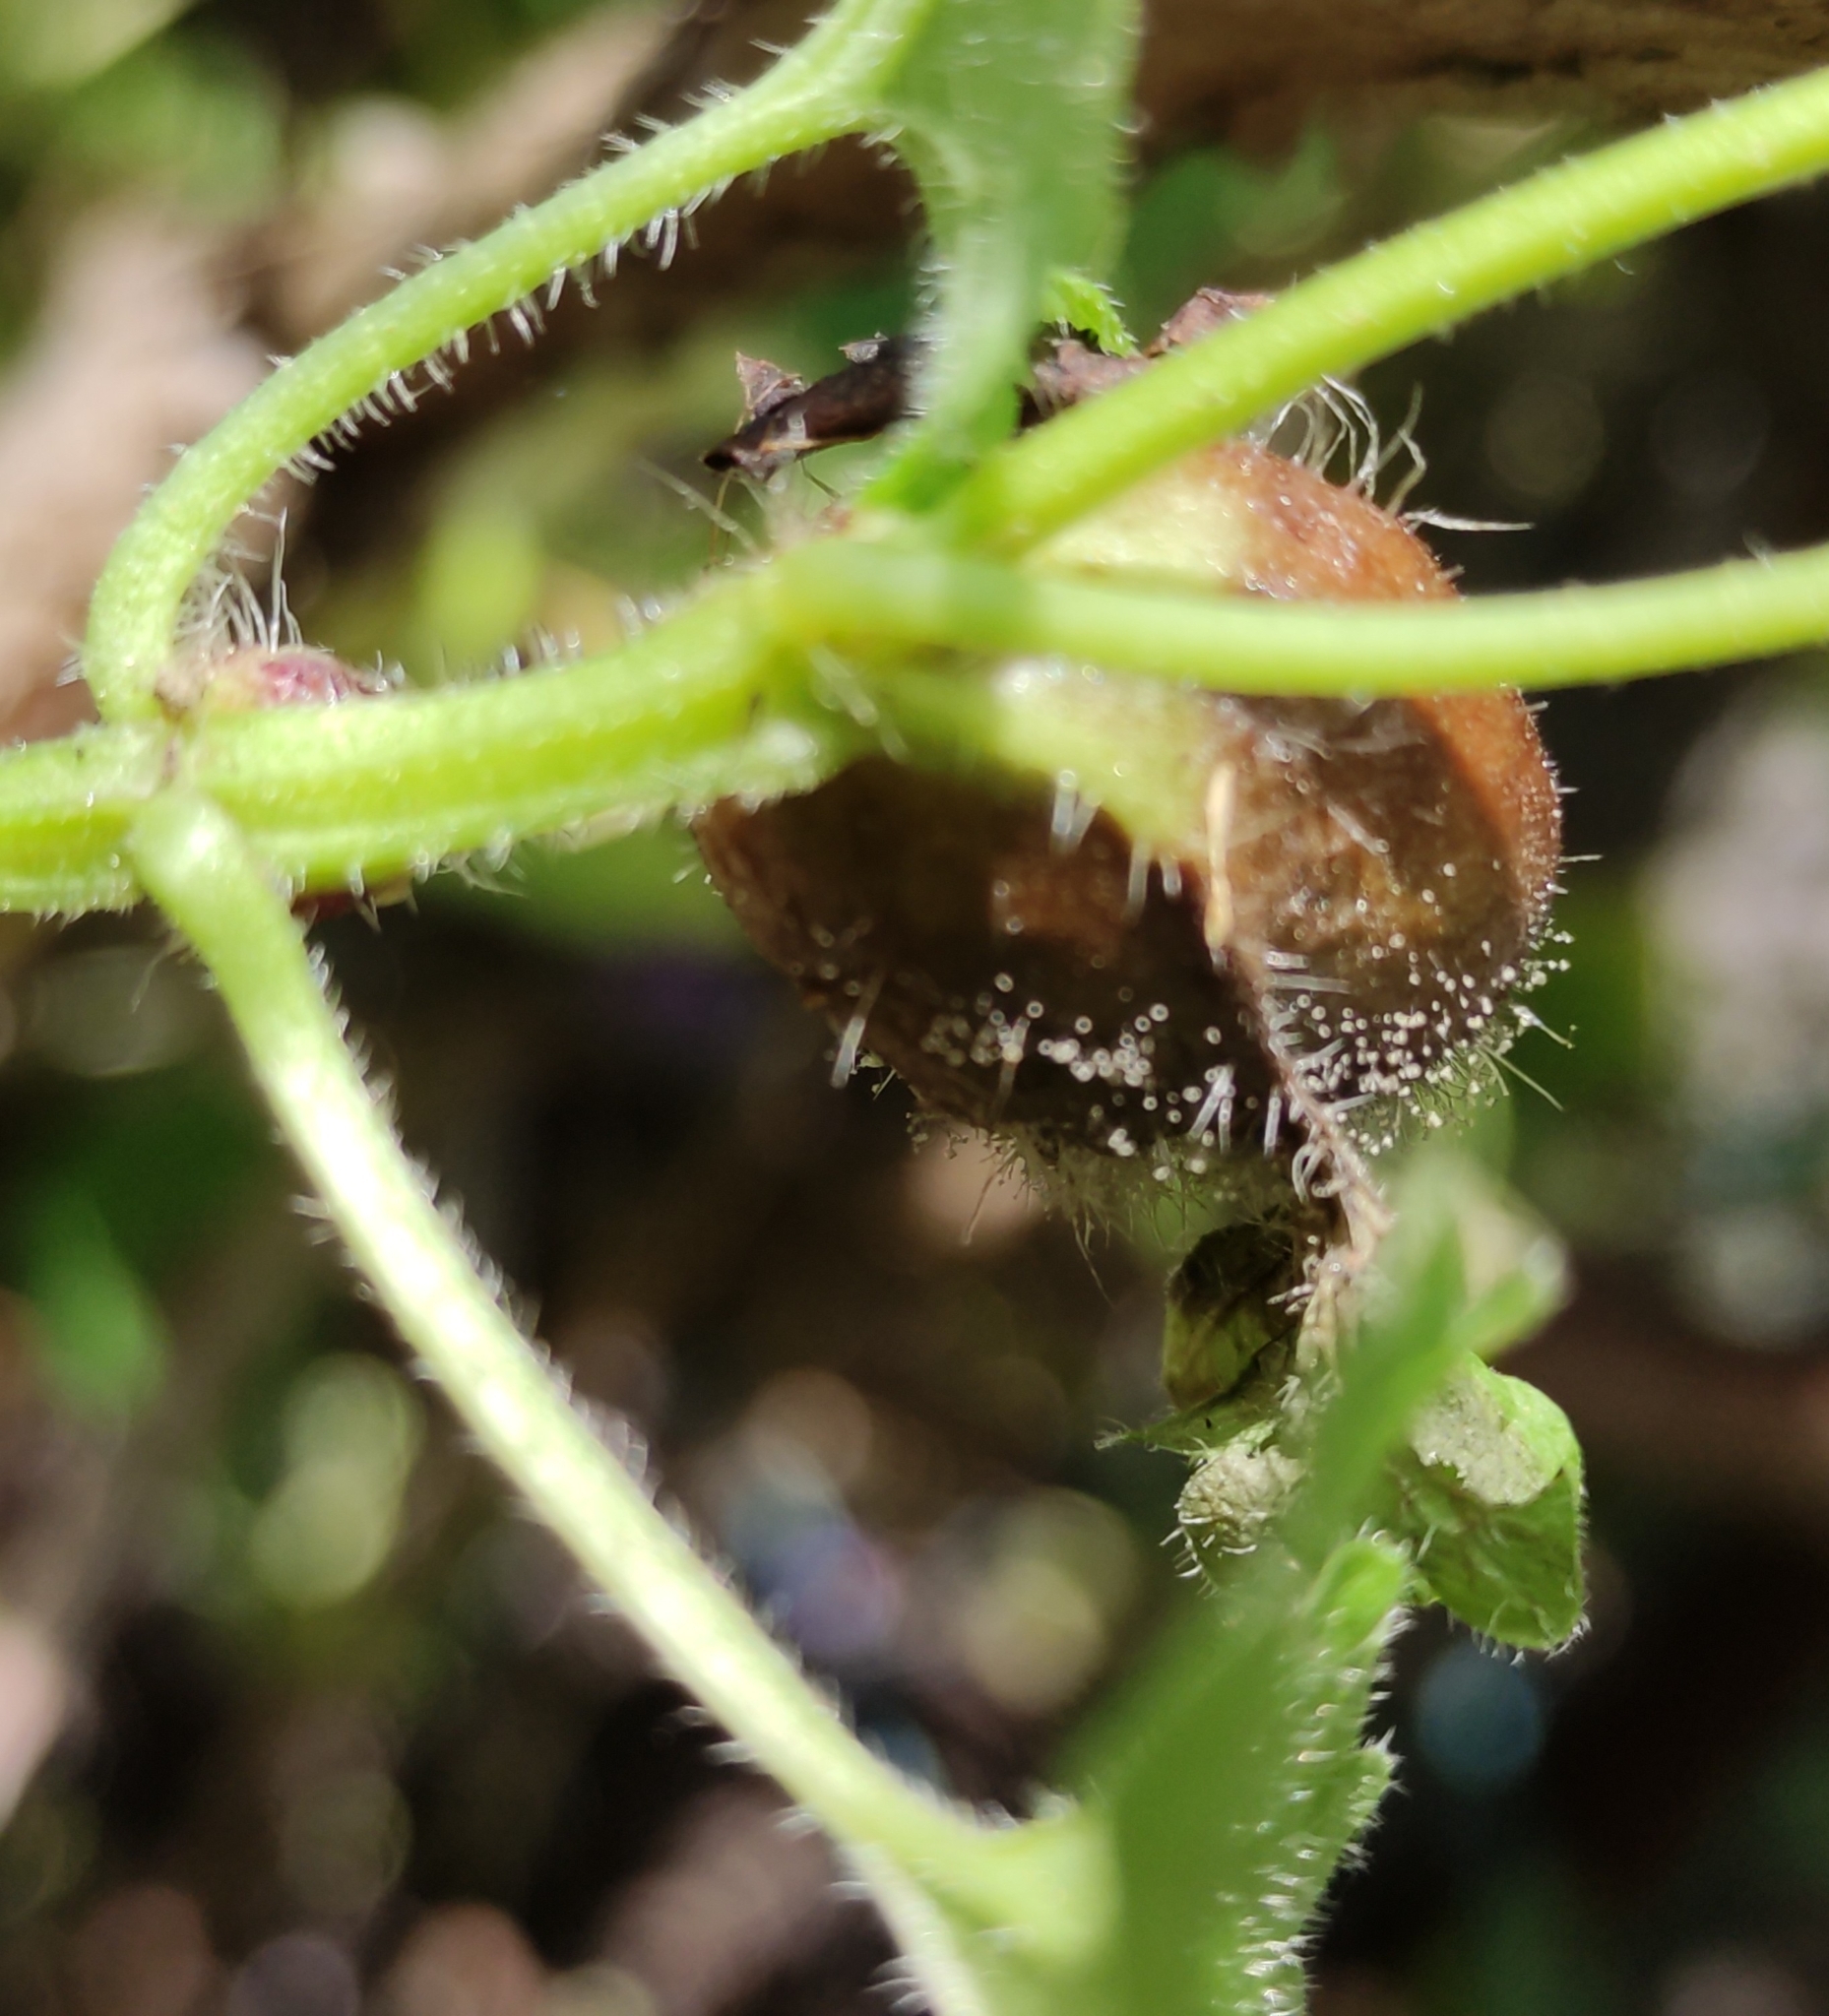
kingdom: Animalia
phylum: Arthropoda
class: Insecta
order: Hymenoptera
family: Cynipidae
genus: Liposthenes
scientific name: Liposthenes glechomae
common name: Gall wasp
